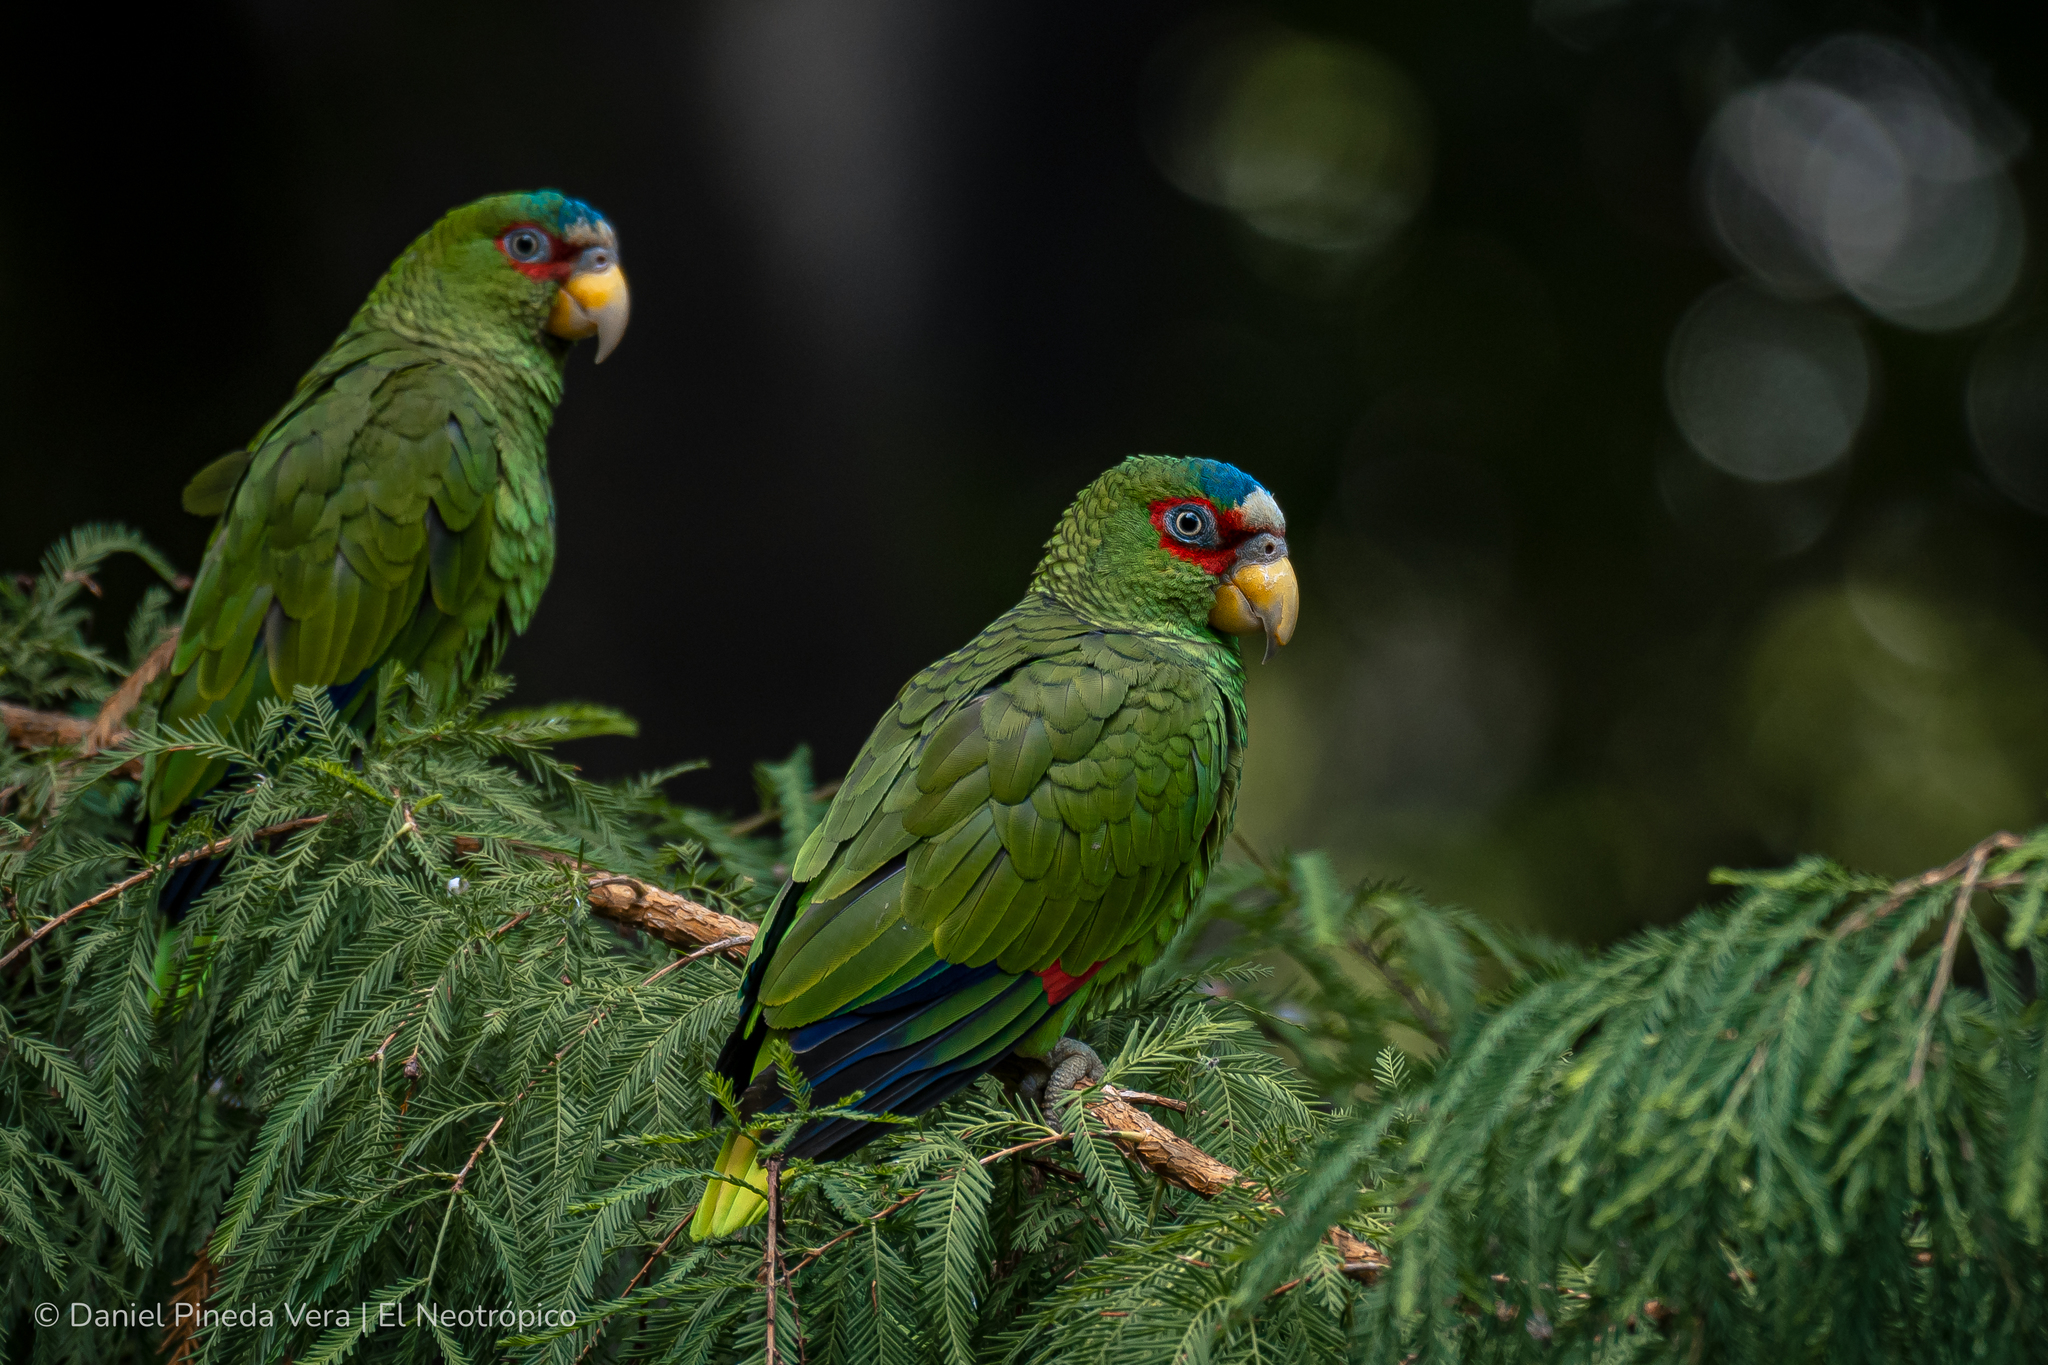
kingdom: Animalia
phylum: Chordata
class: Aves
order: Psittaciformes
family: Psittacidae
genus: Amazona
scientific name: Amazona albifrons
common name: White-fronted amazon
